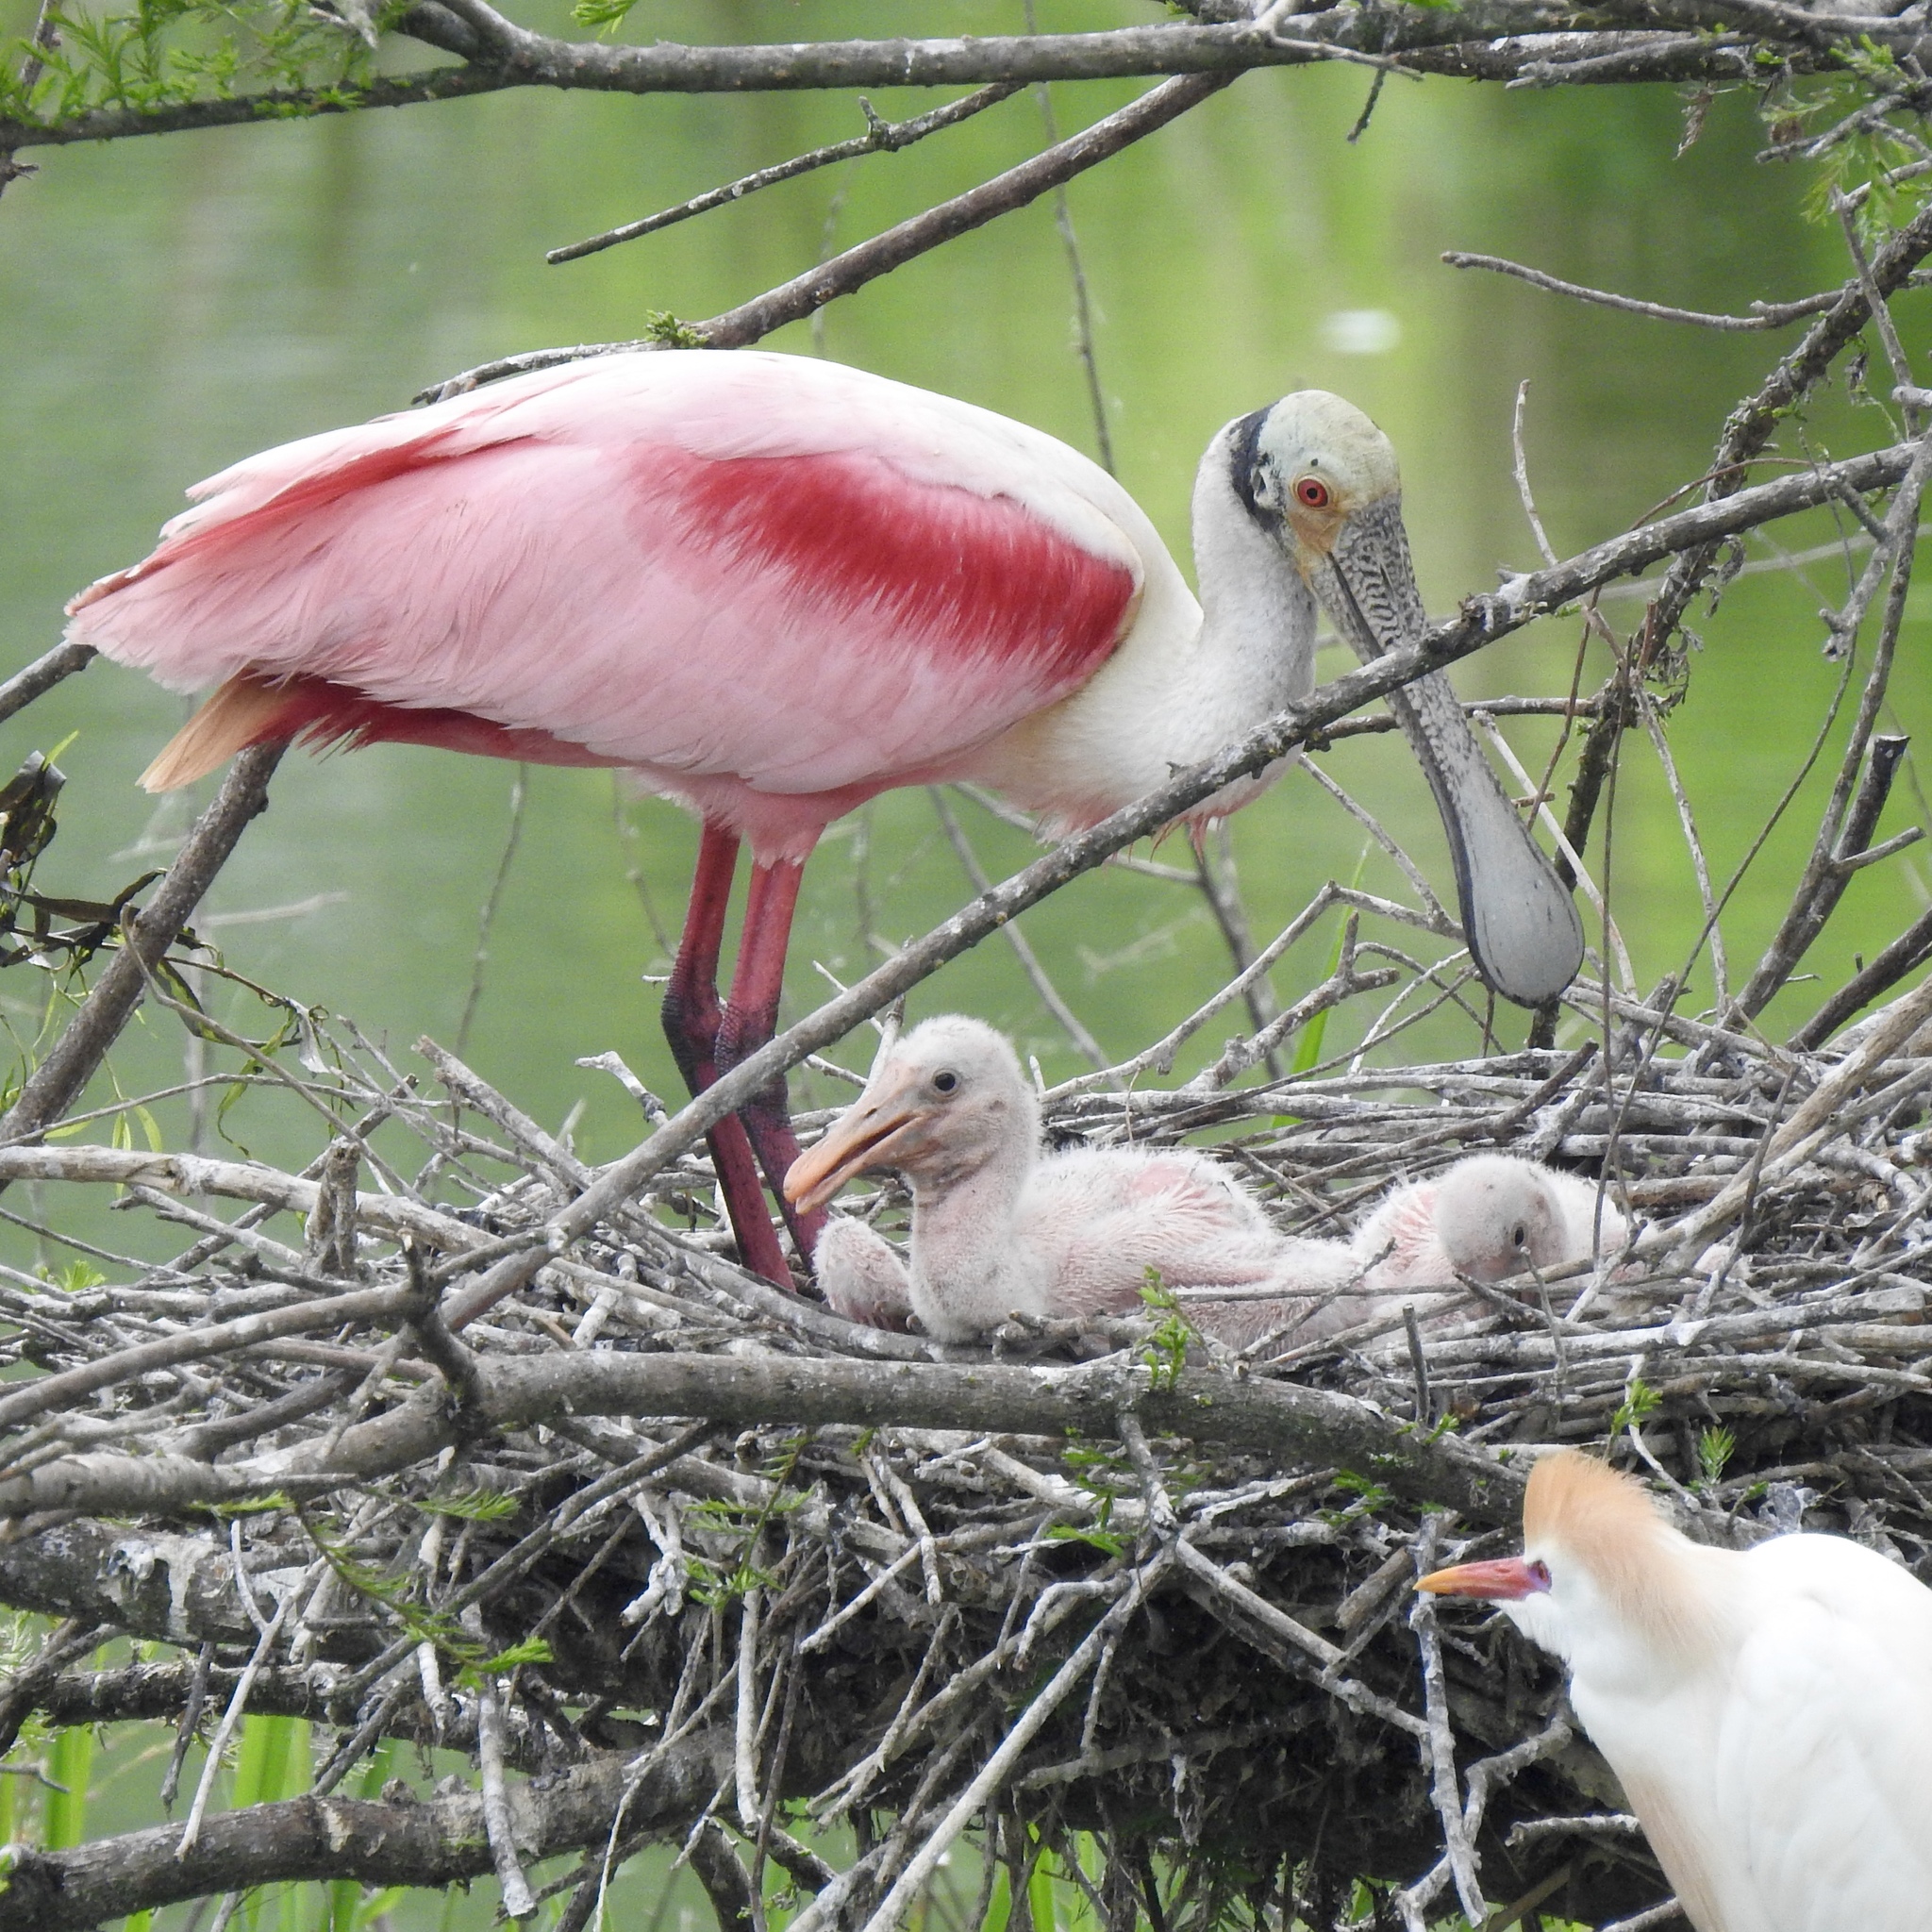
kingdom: Animalia
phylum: Chordata
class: Aves
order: Pelecaniformes
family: Threskiornithidae
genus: Platalea
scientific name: Platalea ajaja
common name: Roseate spoonbill
